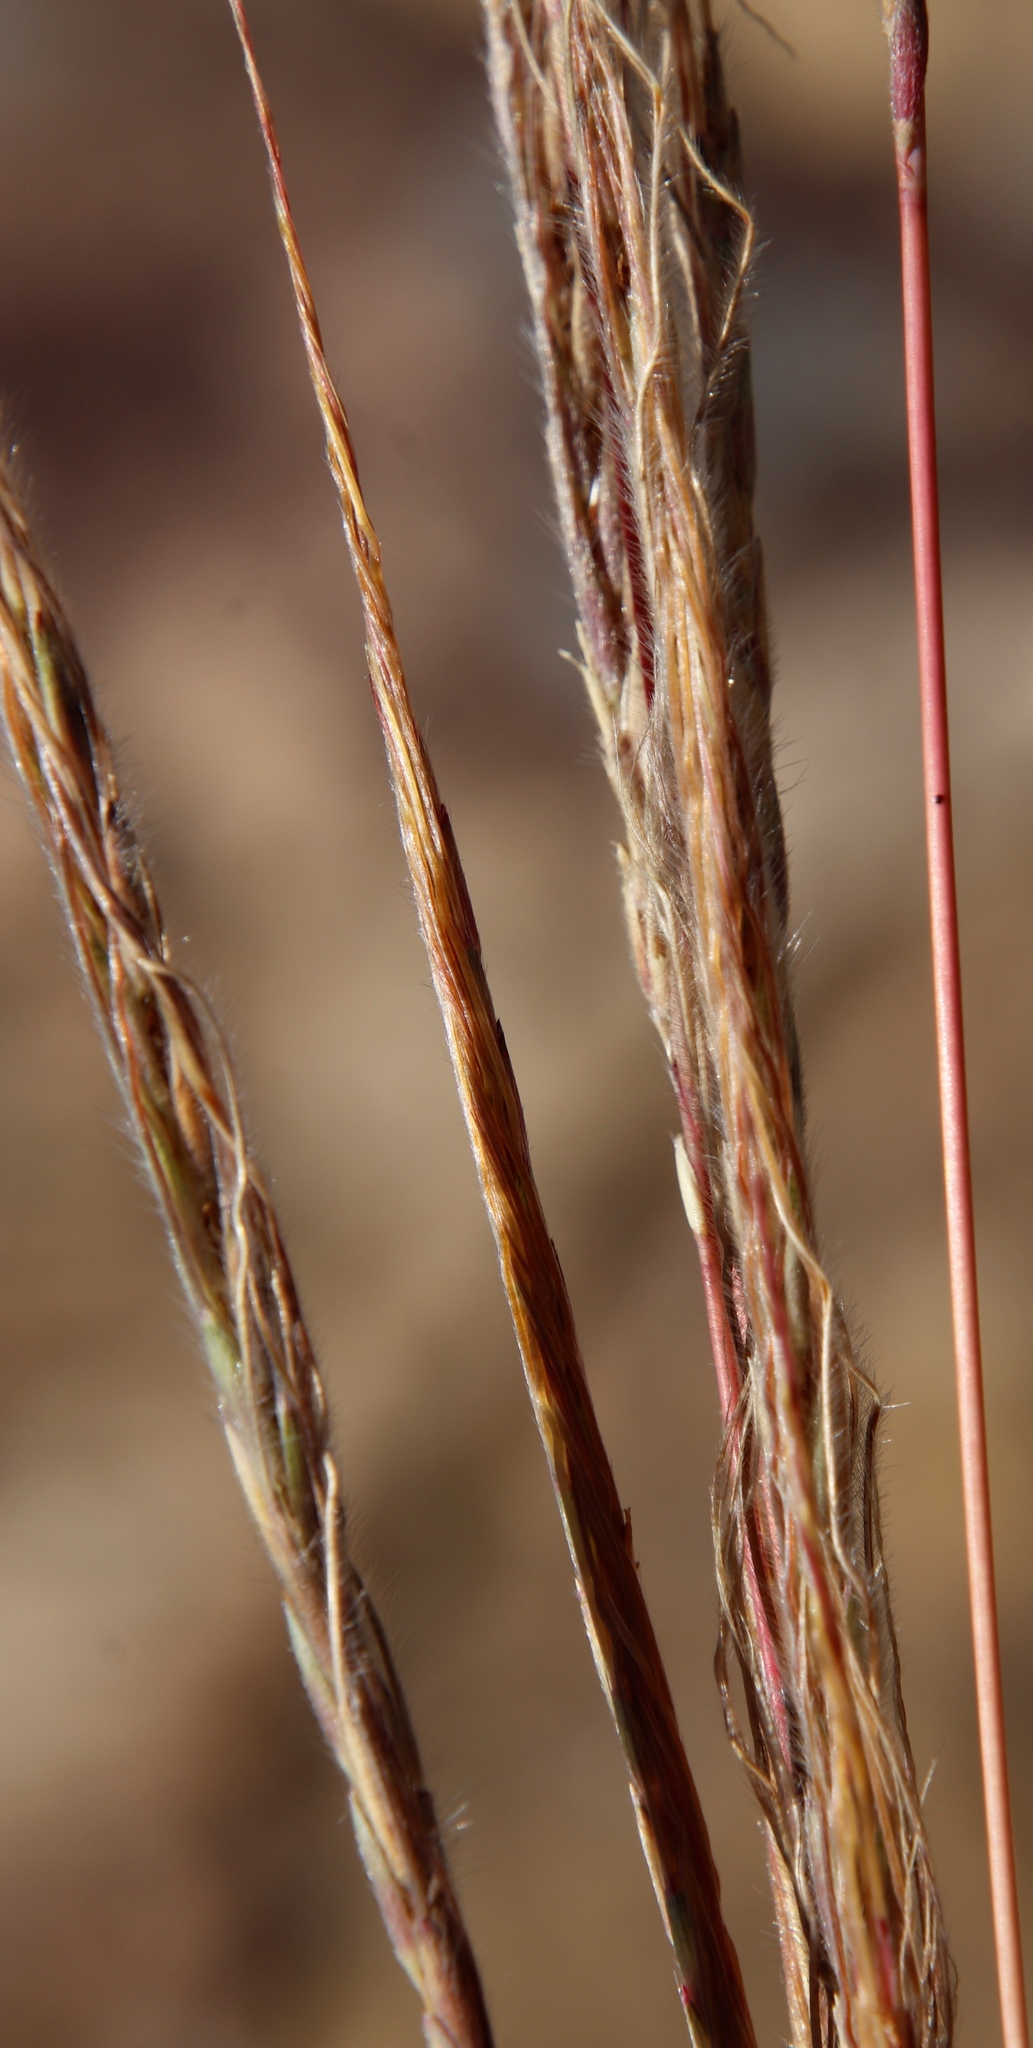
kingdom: Plantae
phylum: Tracheophyta
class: Liliopsida
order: Poales
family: Poaceae
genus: Trachypogon
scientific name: Trachypogon spicatus
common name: Crinkle-awn
